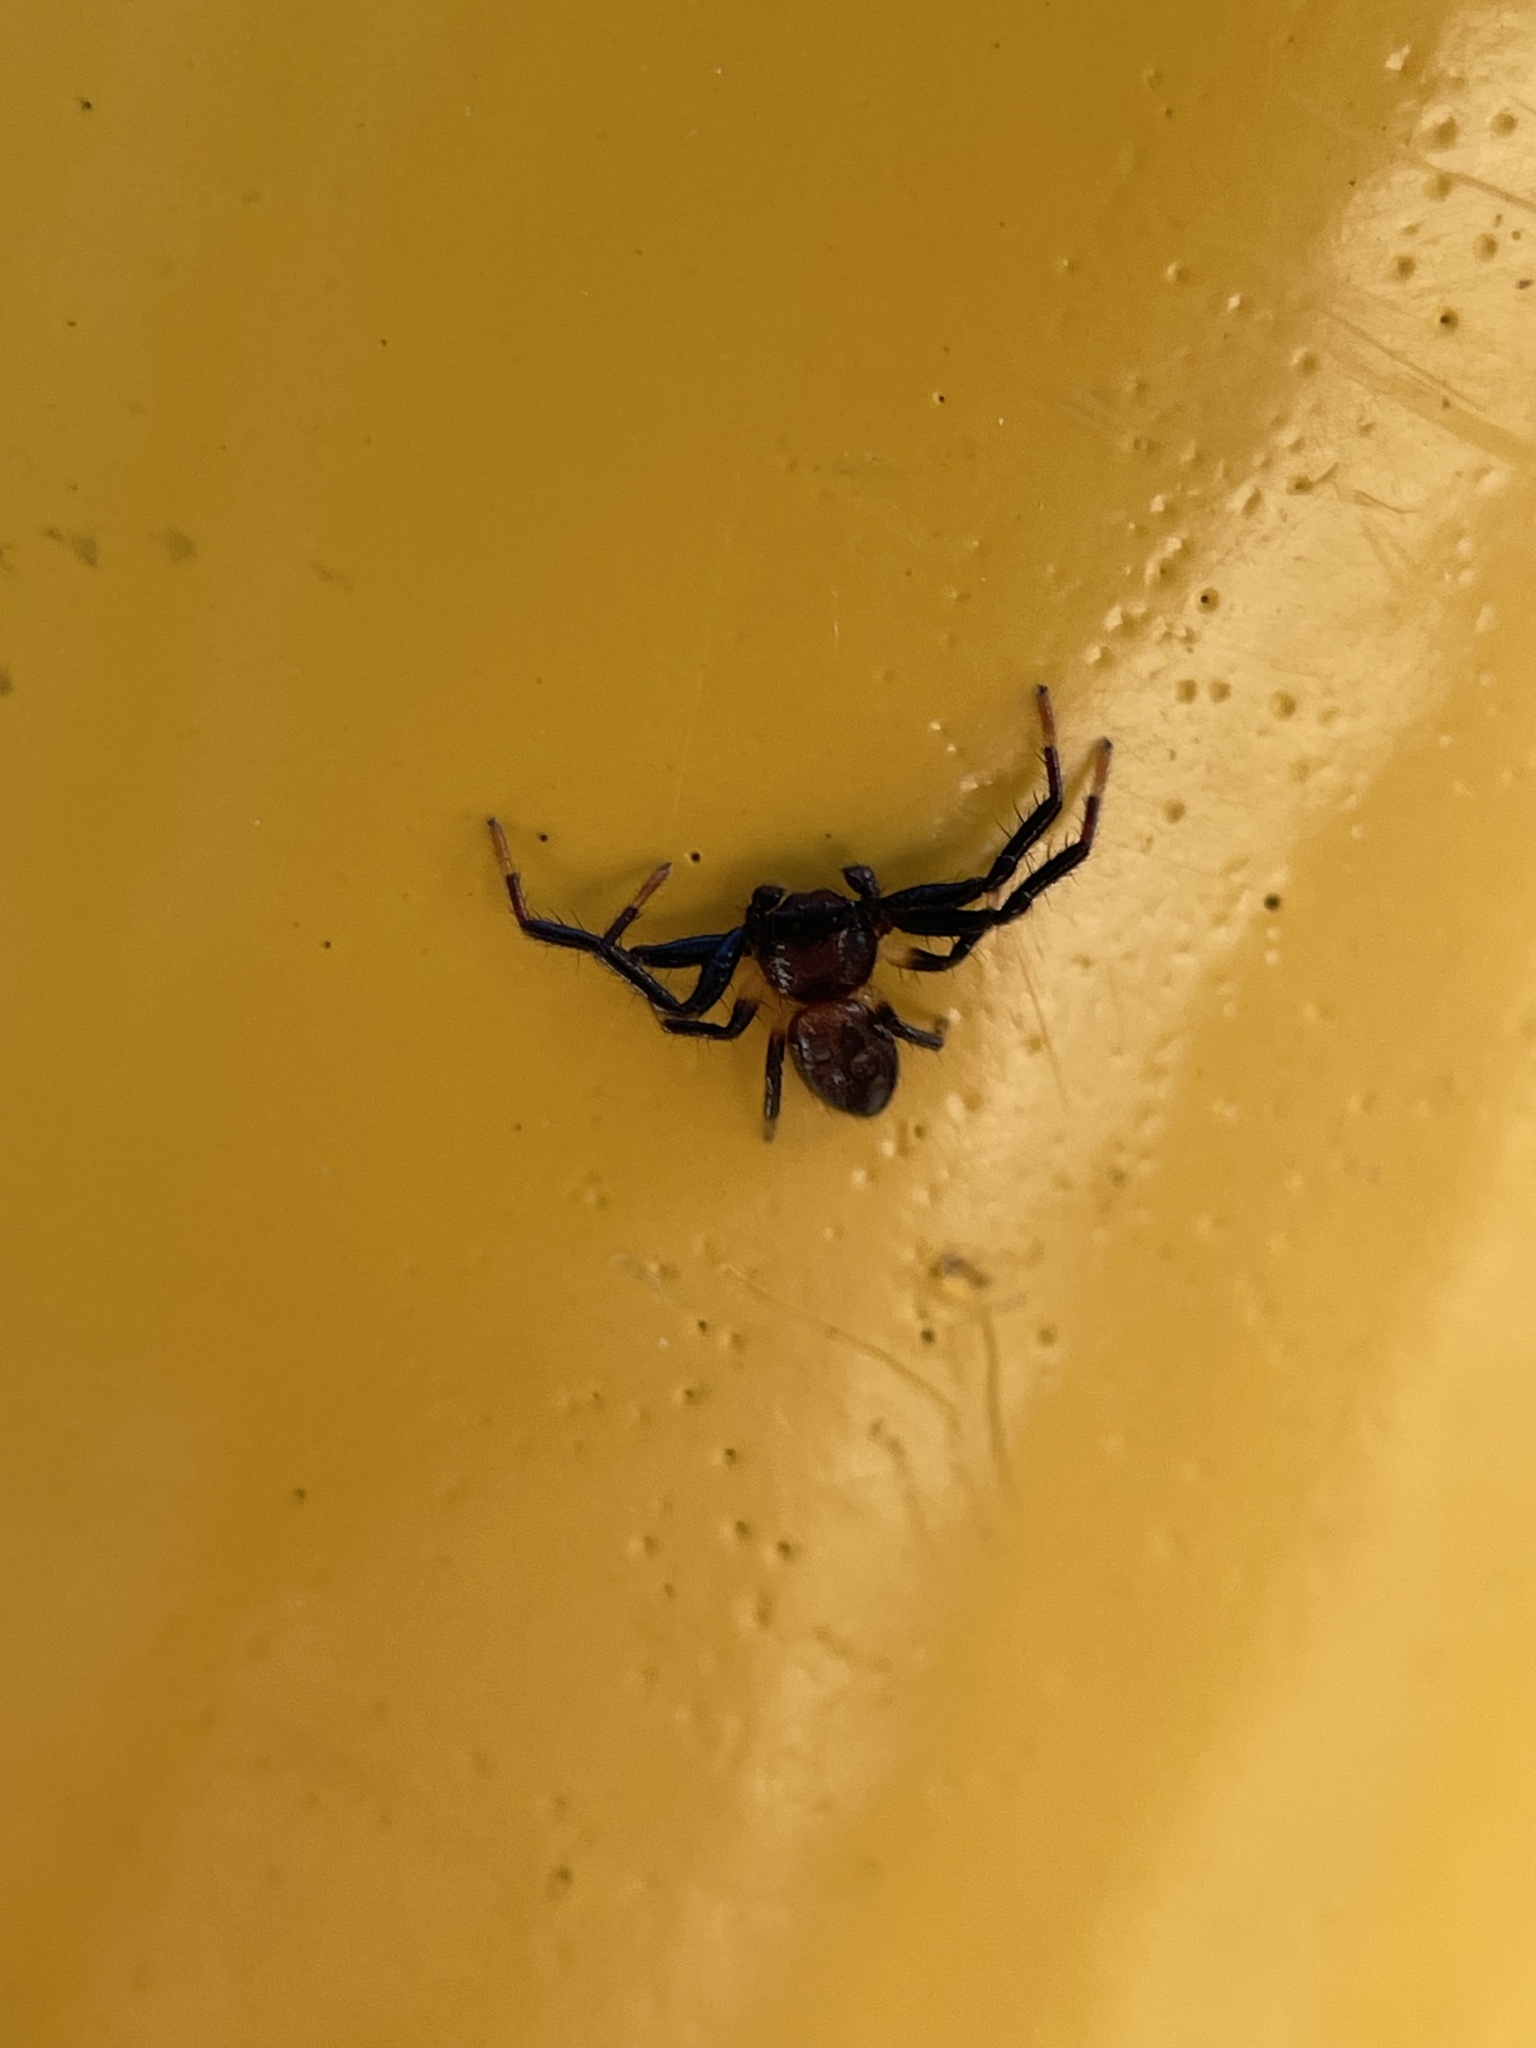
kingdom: Animalia
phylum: Arthropoda
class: Arachnida
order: Araneae
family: Thomisidae
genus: Xysticus
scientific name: Xysticus bimaculatus
